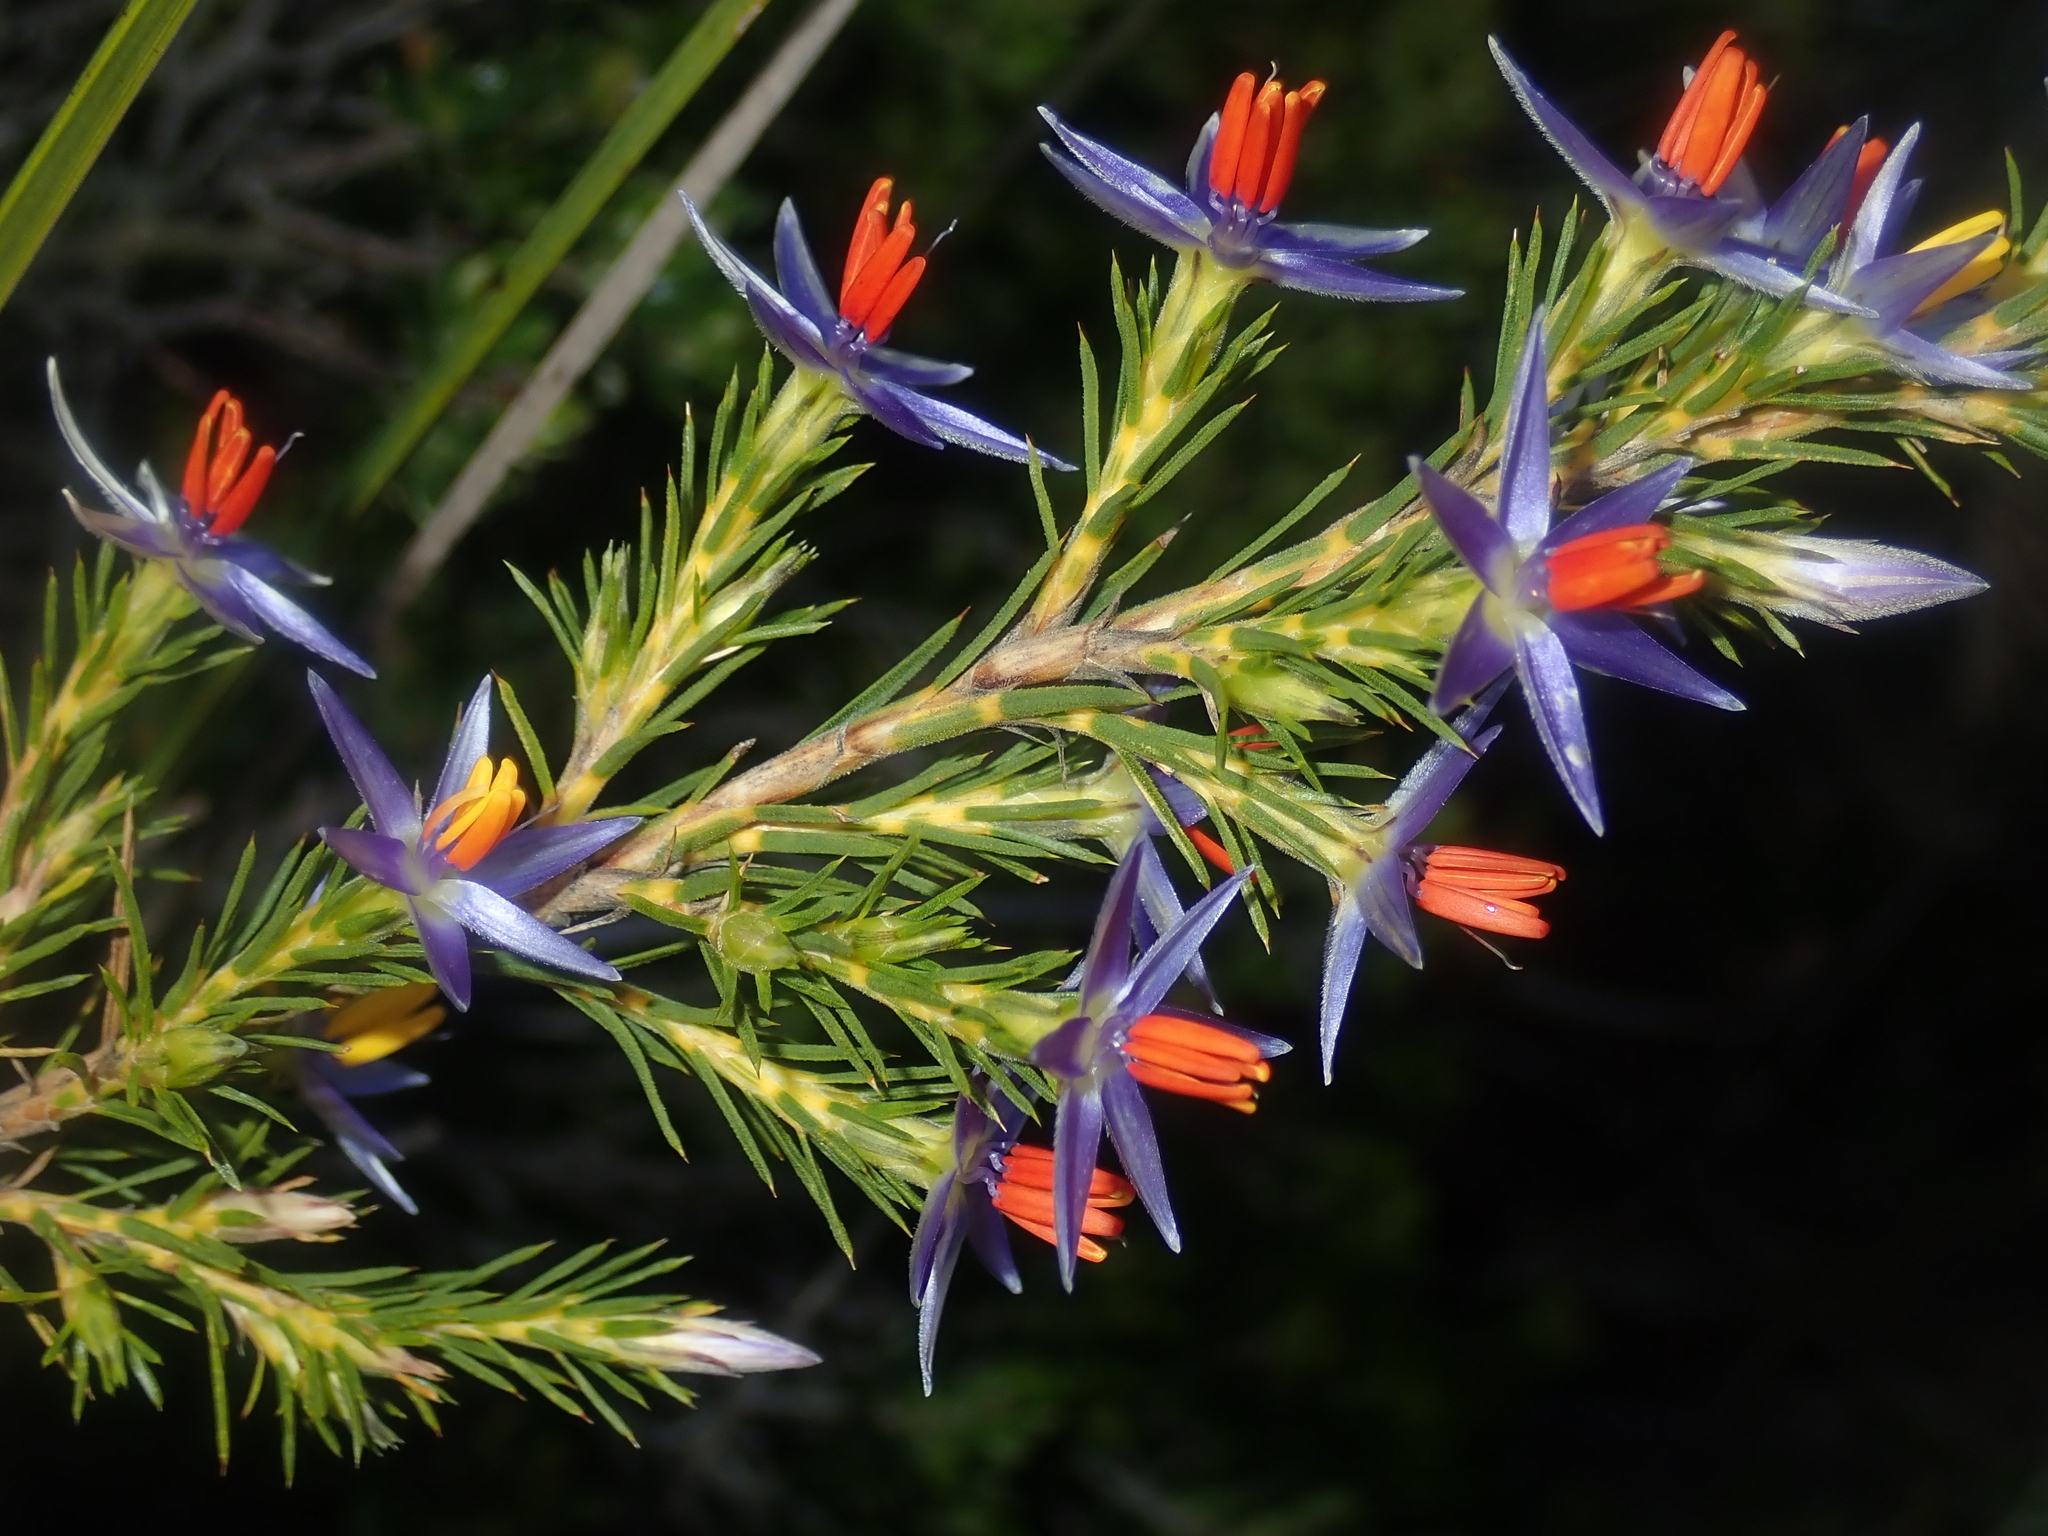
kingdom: Plantae
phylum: Tracheophyta
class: Liliopsida
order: Arecales
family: Dasypogonaceae
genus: Calectasia
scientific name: Calectasia narragara
